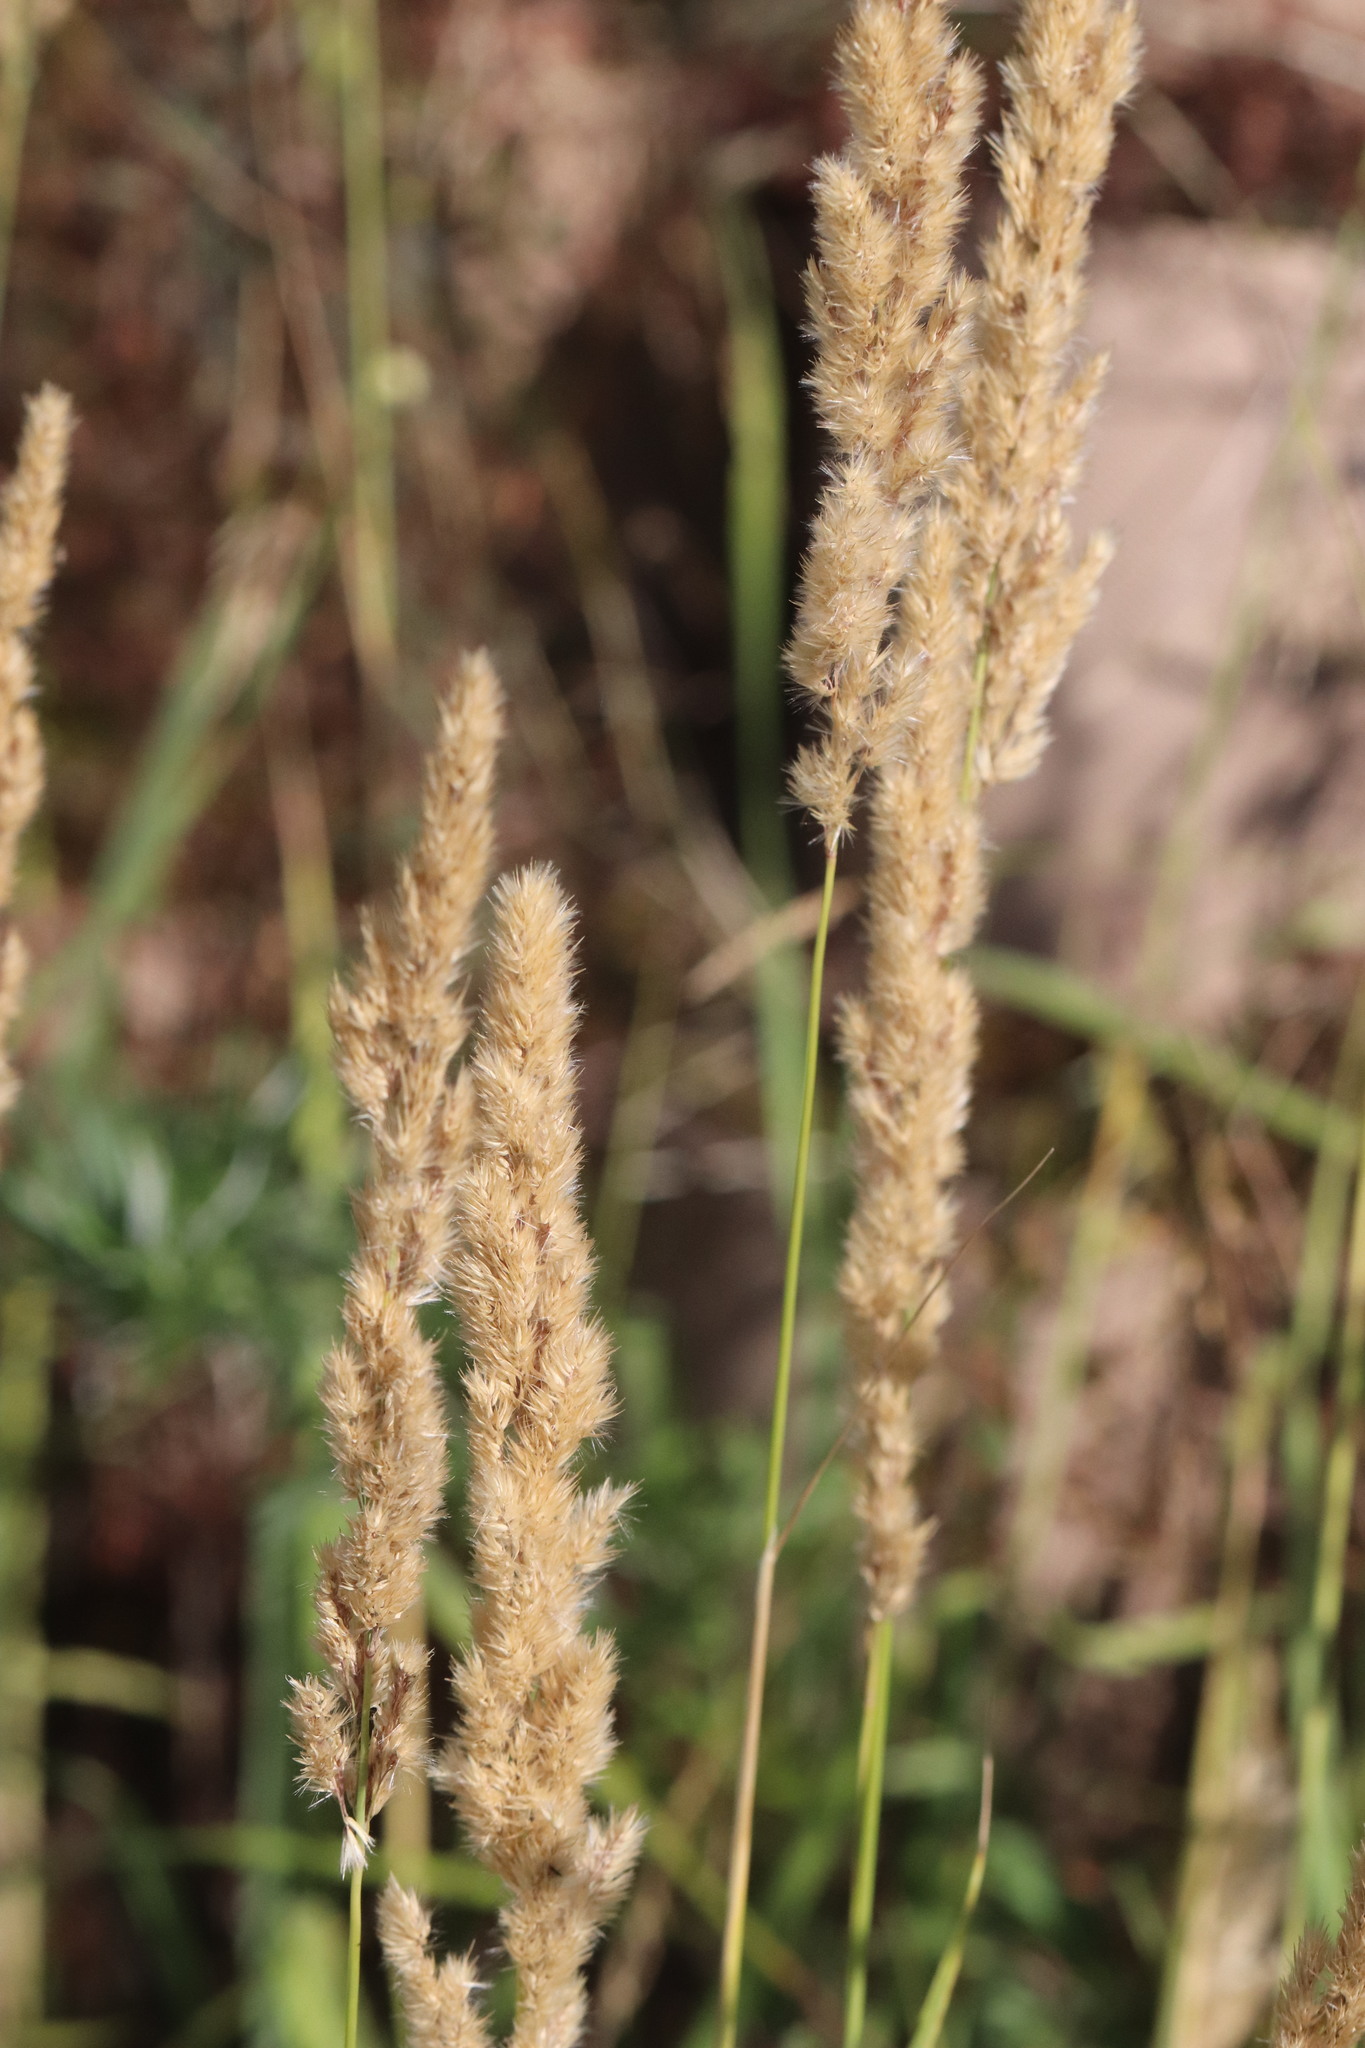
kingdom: Plantae
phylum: Tracheophyta
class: Liliopsida
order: Poales
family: Poaceae
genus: Calamagrostis
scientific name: Calamagrostis epigejos
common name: Wood small-reed
